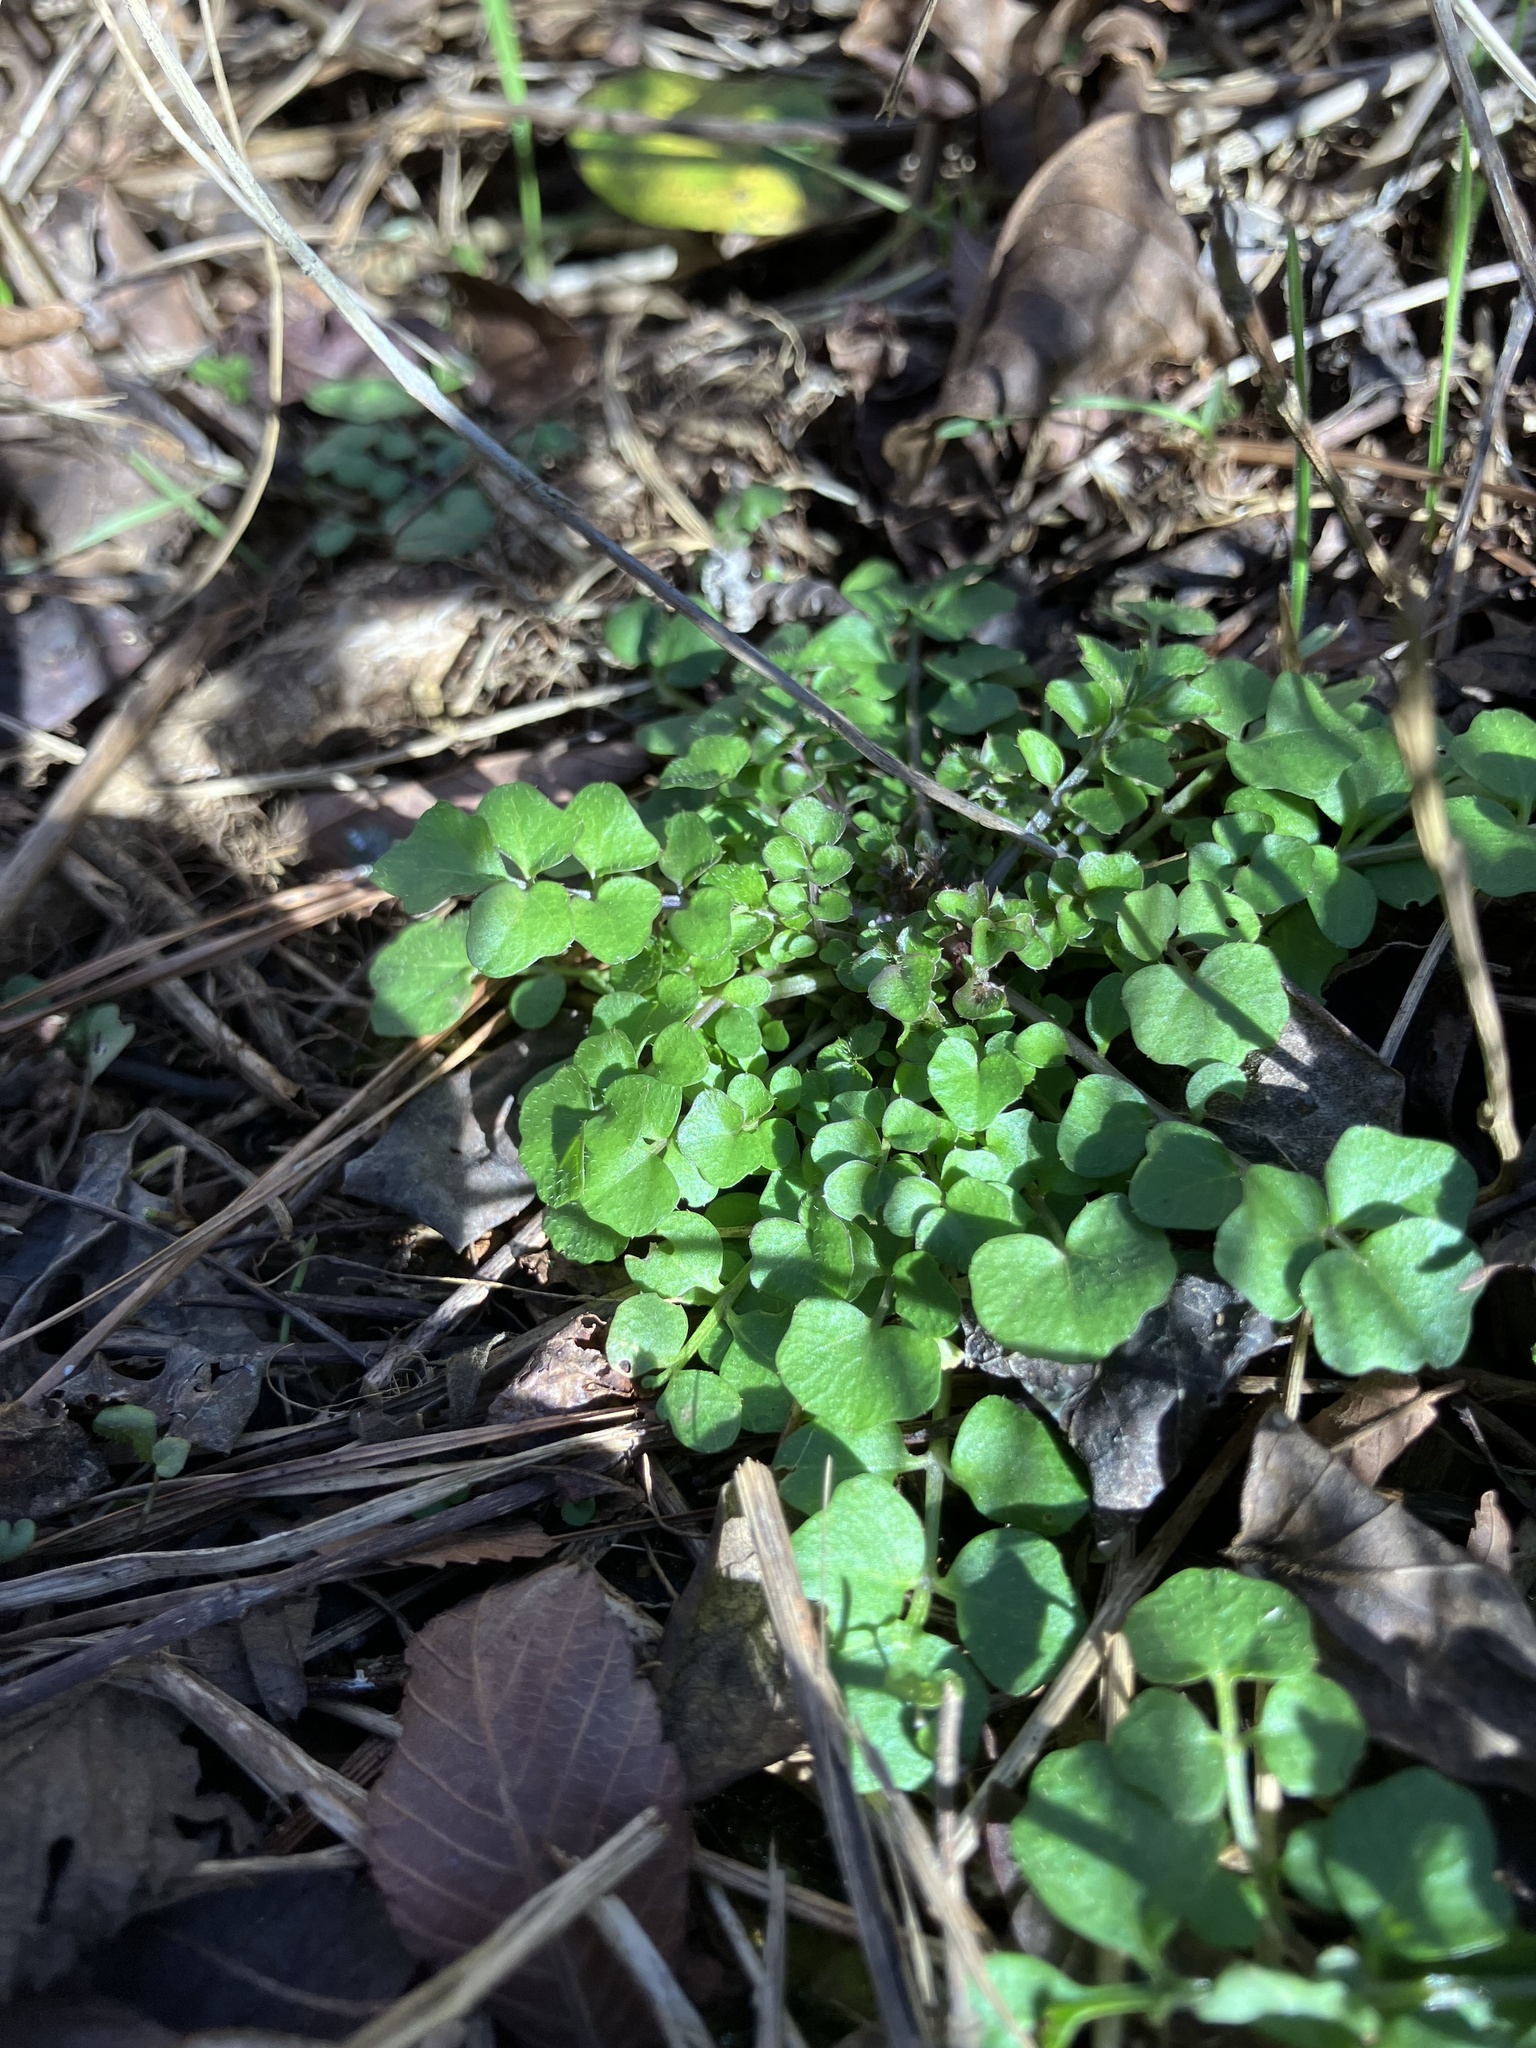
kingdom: Plantae
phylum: Tracheophyta
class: Magnoliopsida
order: Brassicales
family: Brassicaceae
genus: Cardamine
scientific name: Cardamine hirsuta
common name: Hairy bittercress
